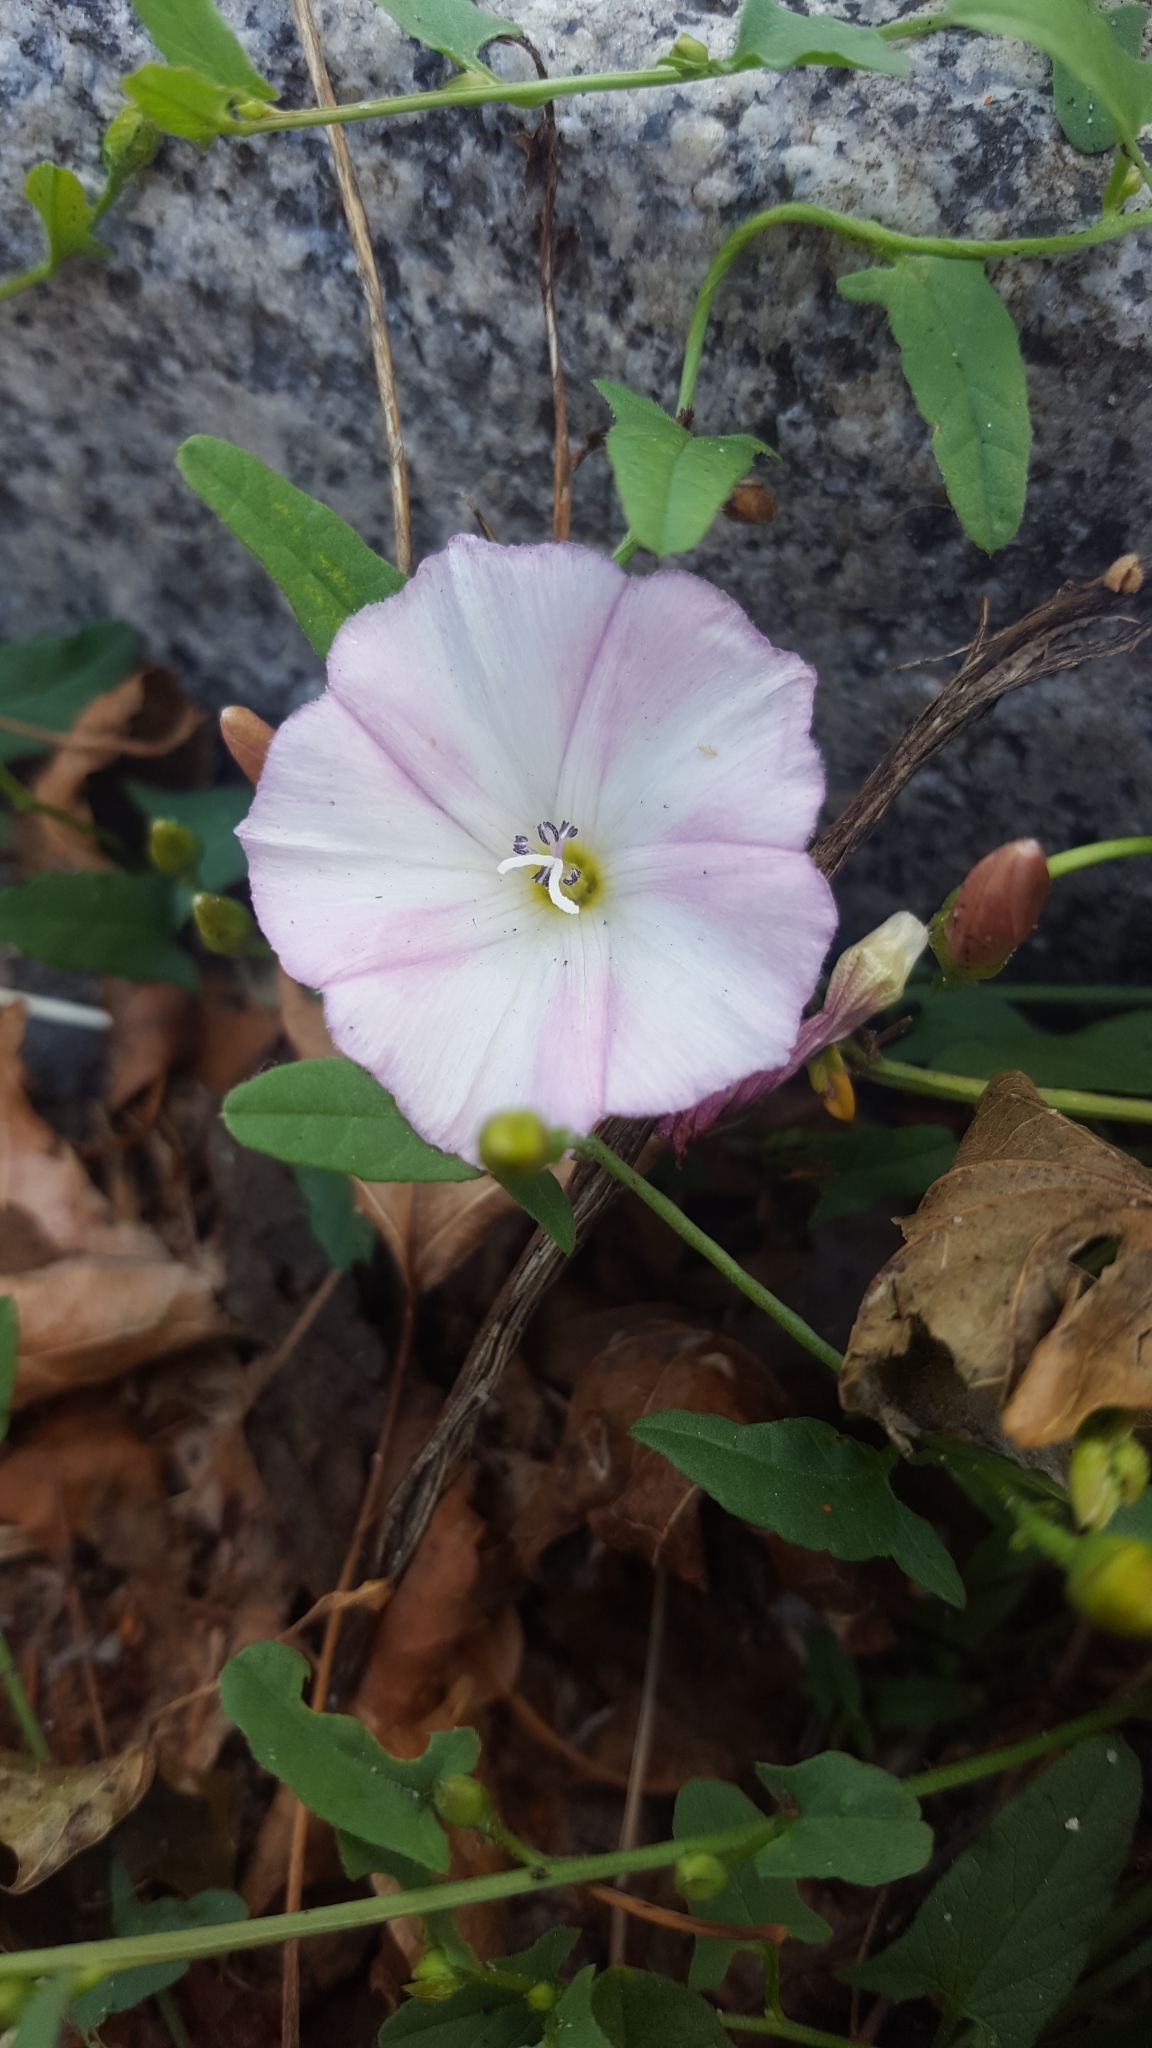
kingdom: Plantae
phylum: Tracheophyta
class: Magnoliopsida
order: Solanales
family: Convolvulaceae
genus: Convolvulus
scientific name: Convolvulus arvensis
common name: Field bindweed
